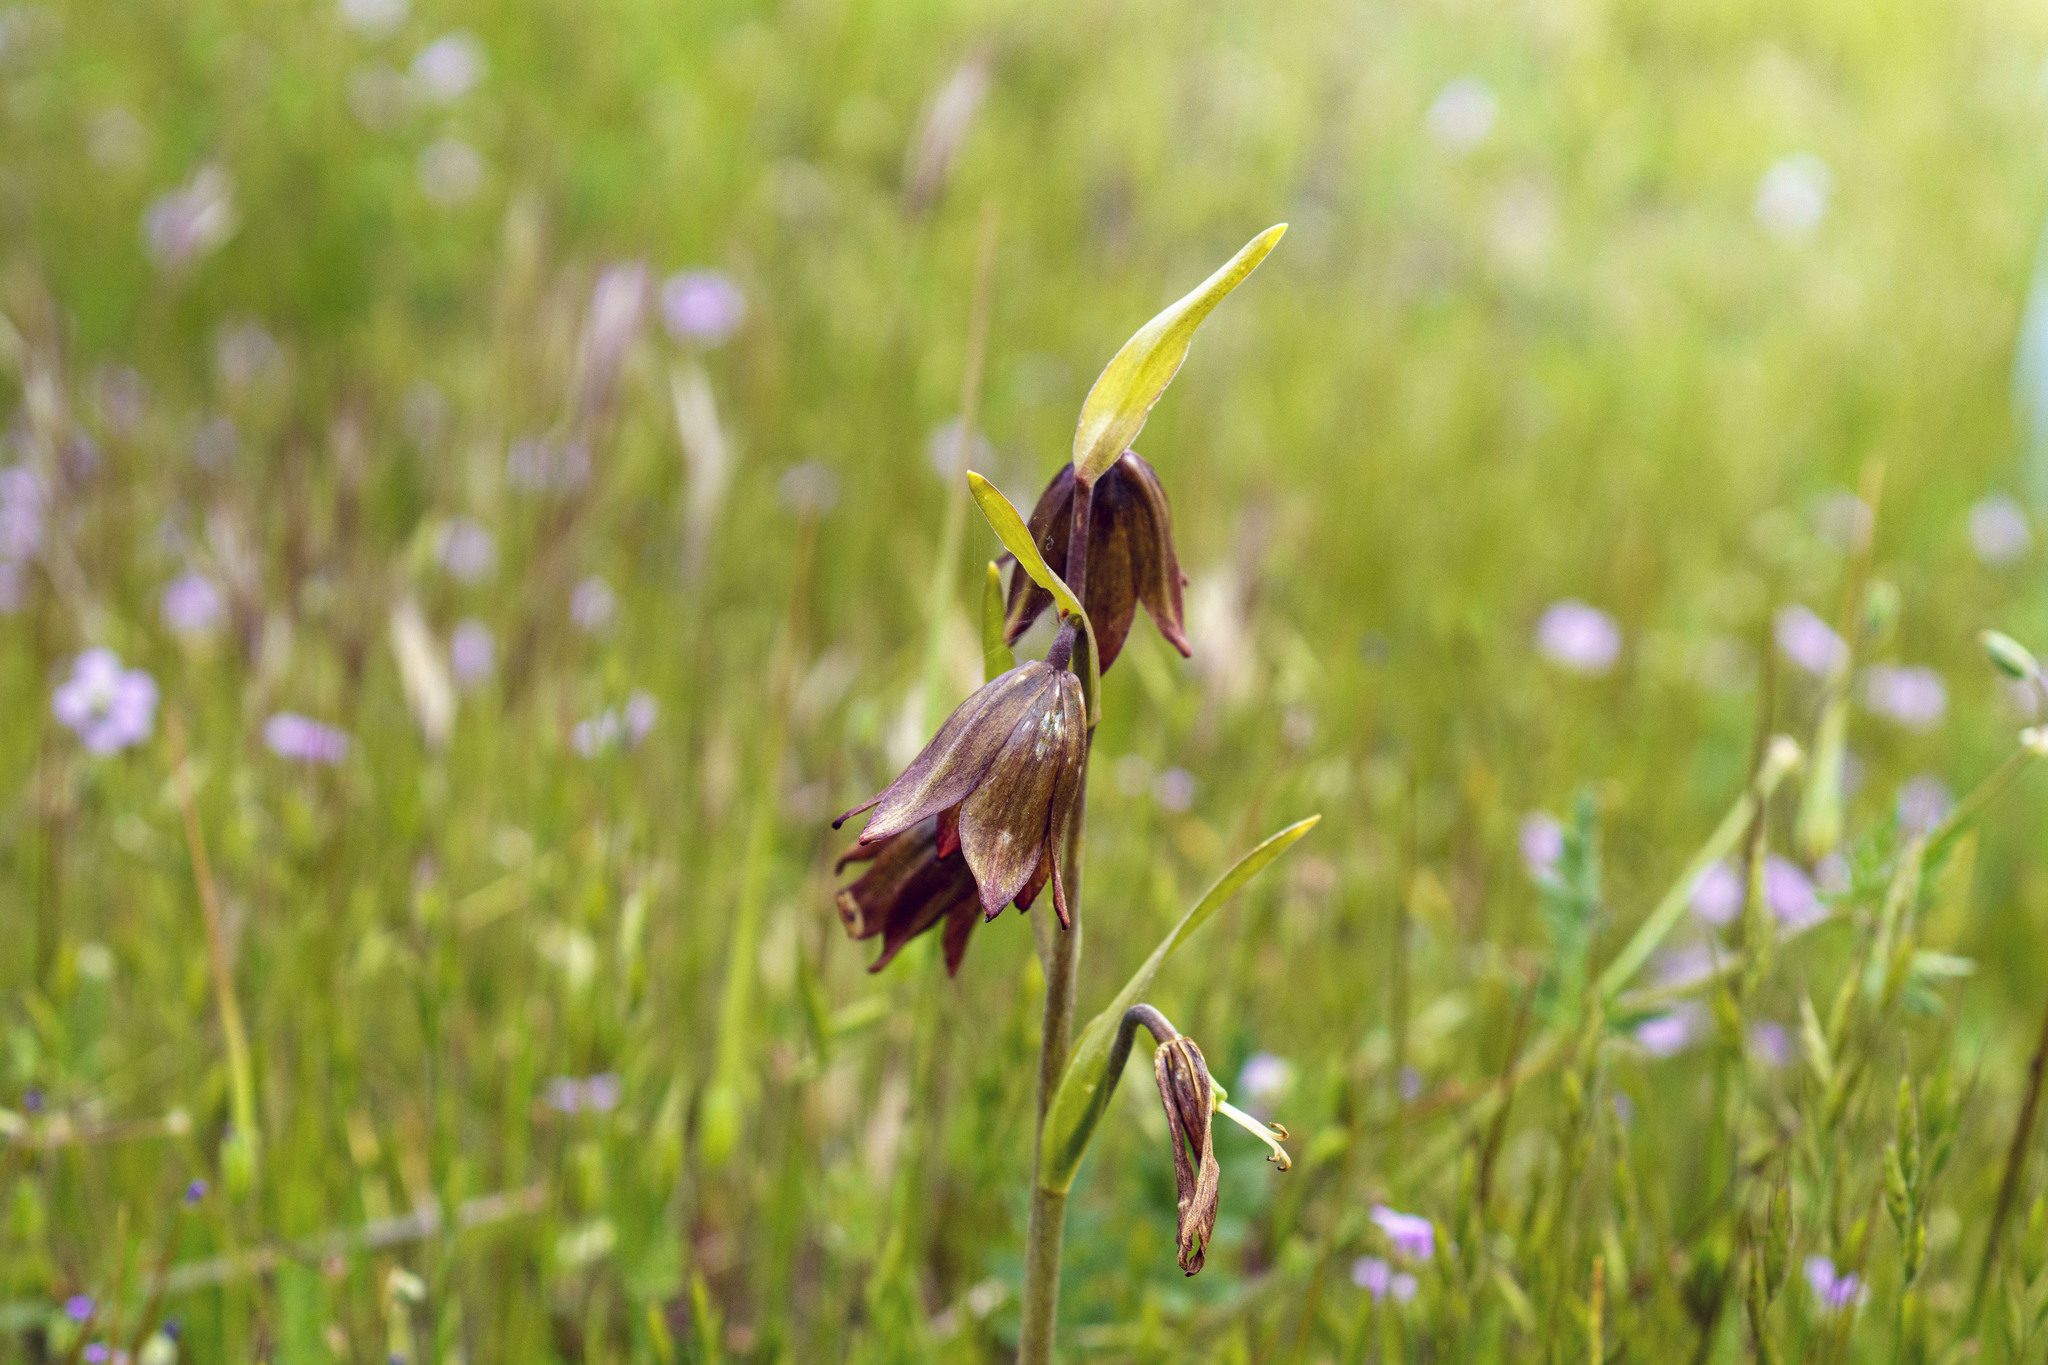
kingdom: Plantae
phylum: Tracheophyta
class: Liliopsida
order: Liliales
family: Liliaceae
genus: Fritillaria
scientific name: Fritillaria biflora
